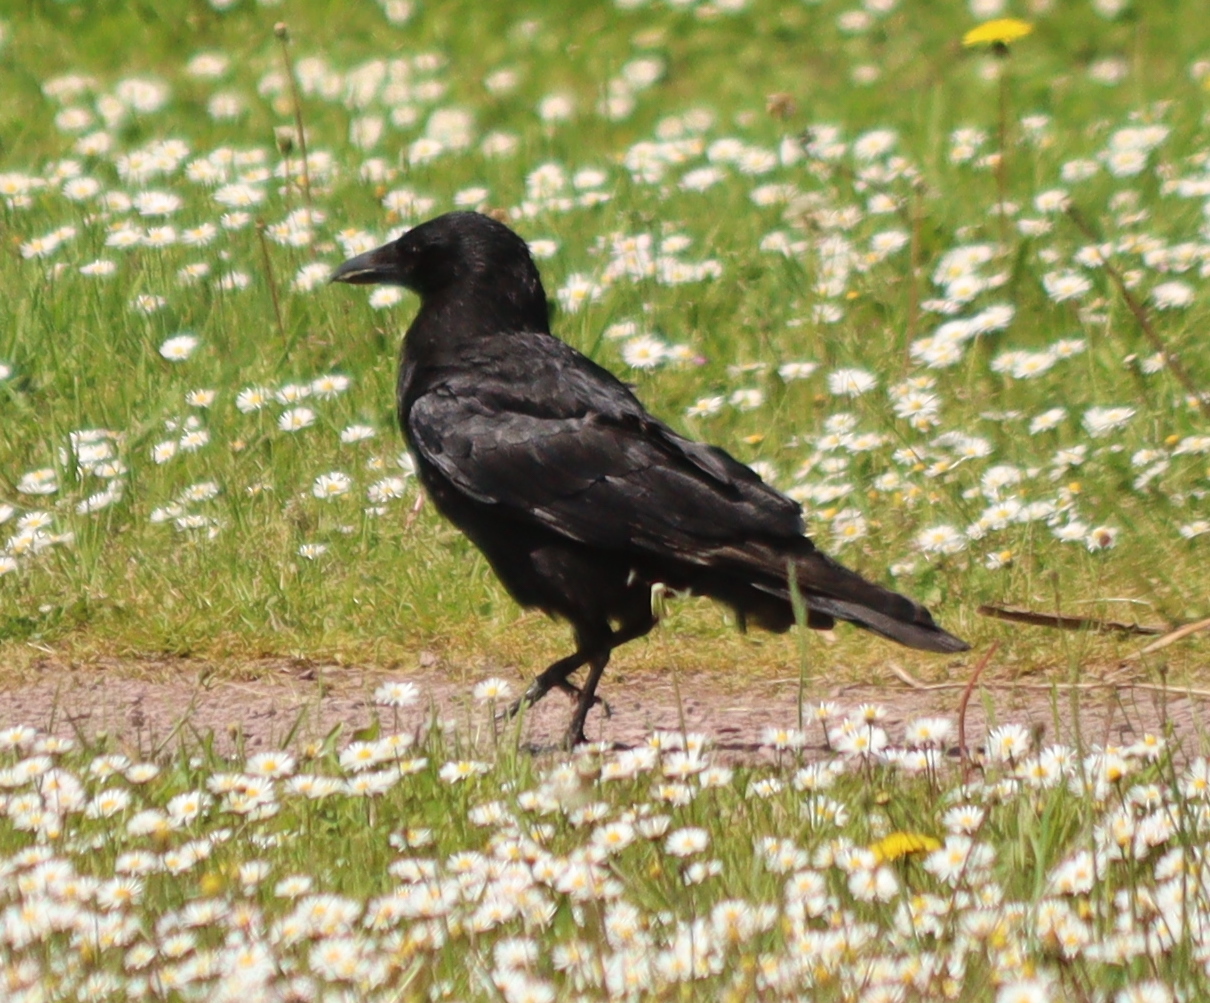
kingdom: Animalia
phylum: Chordata
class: Aves
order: Passeriformes
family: Corvidae
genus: Corvus
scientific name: Corvus corone
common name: Carrion crow
